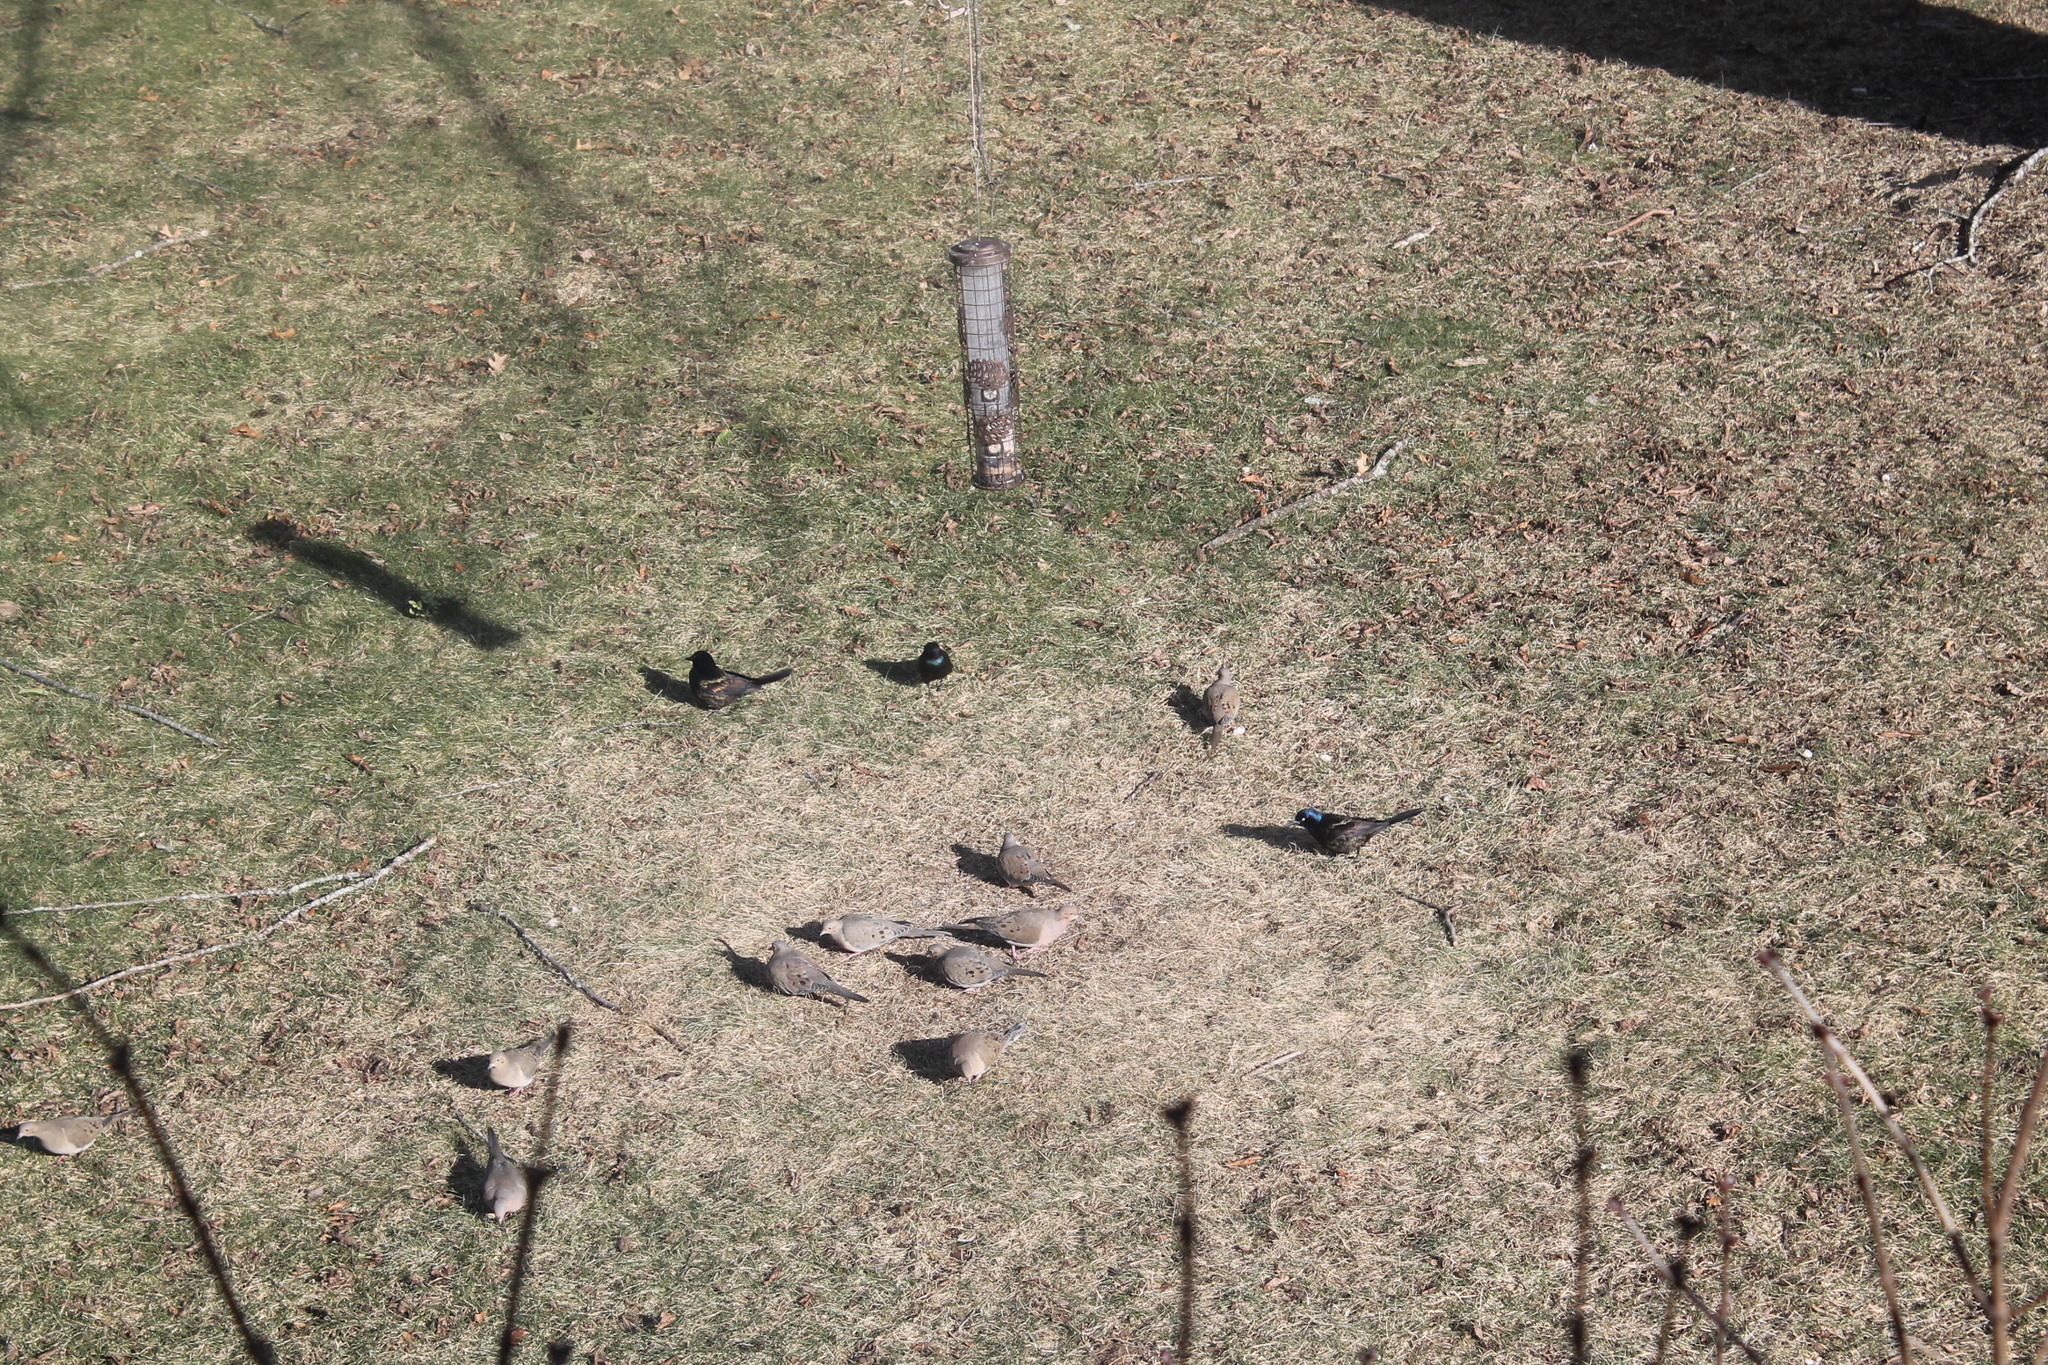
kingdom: Animalia
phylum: Chordata
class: Aves
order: Columbiformes
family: Columbidae
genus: Zenaida
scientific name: Zenaida macroura
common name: Mourning dove
